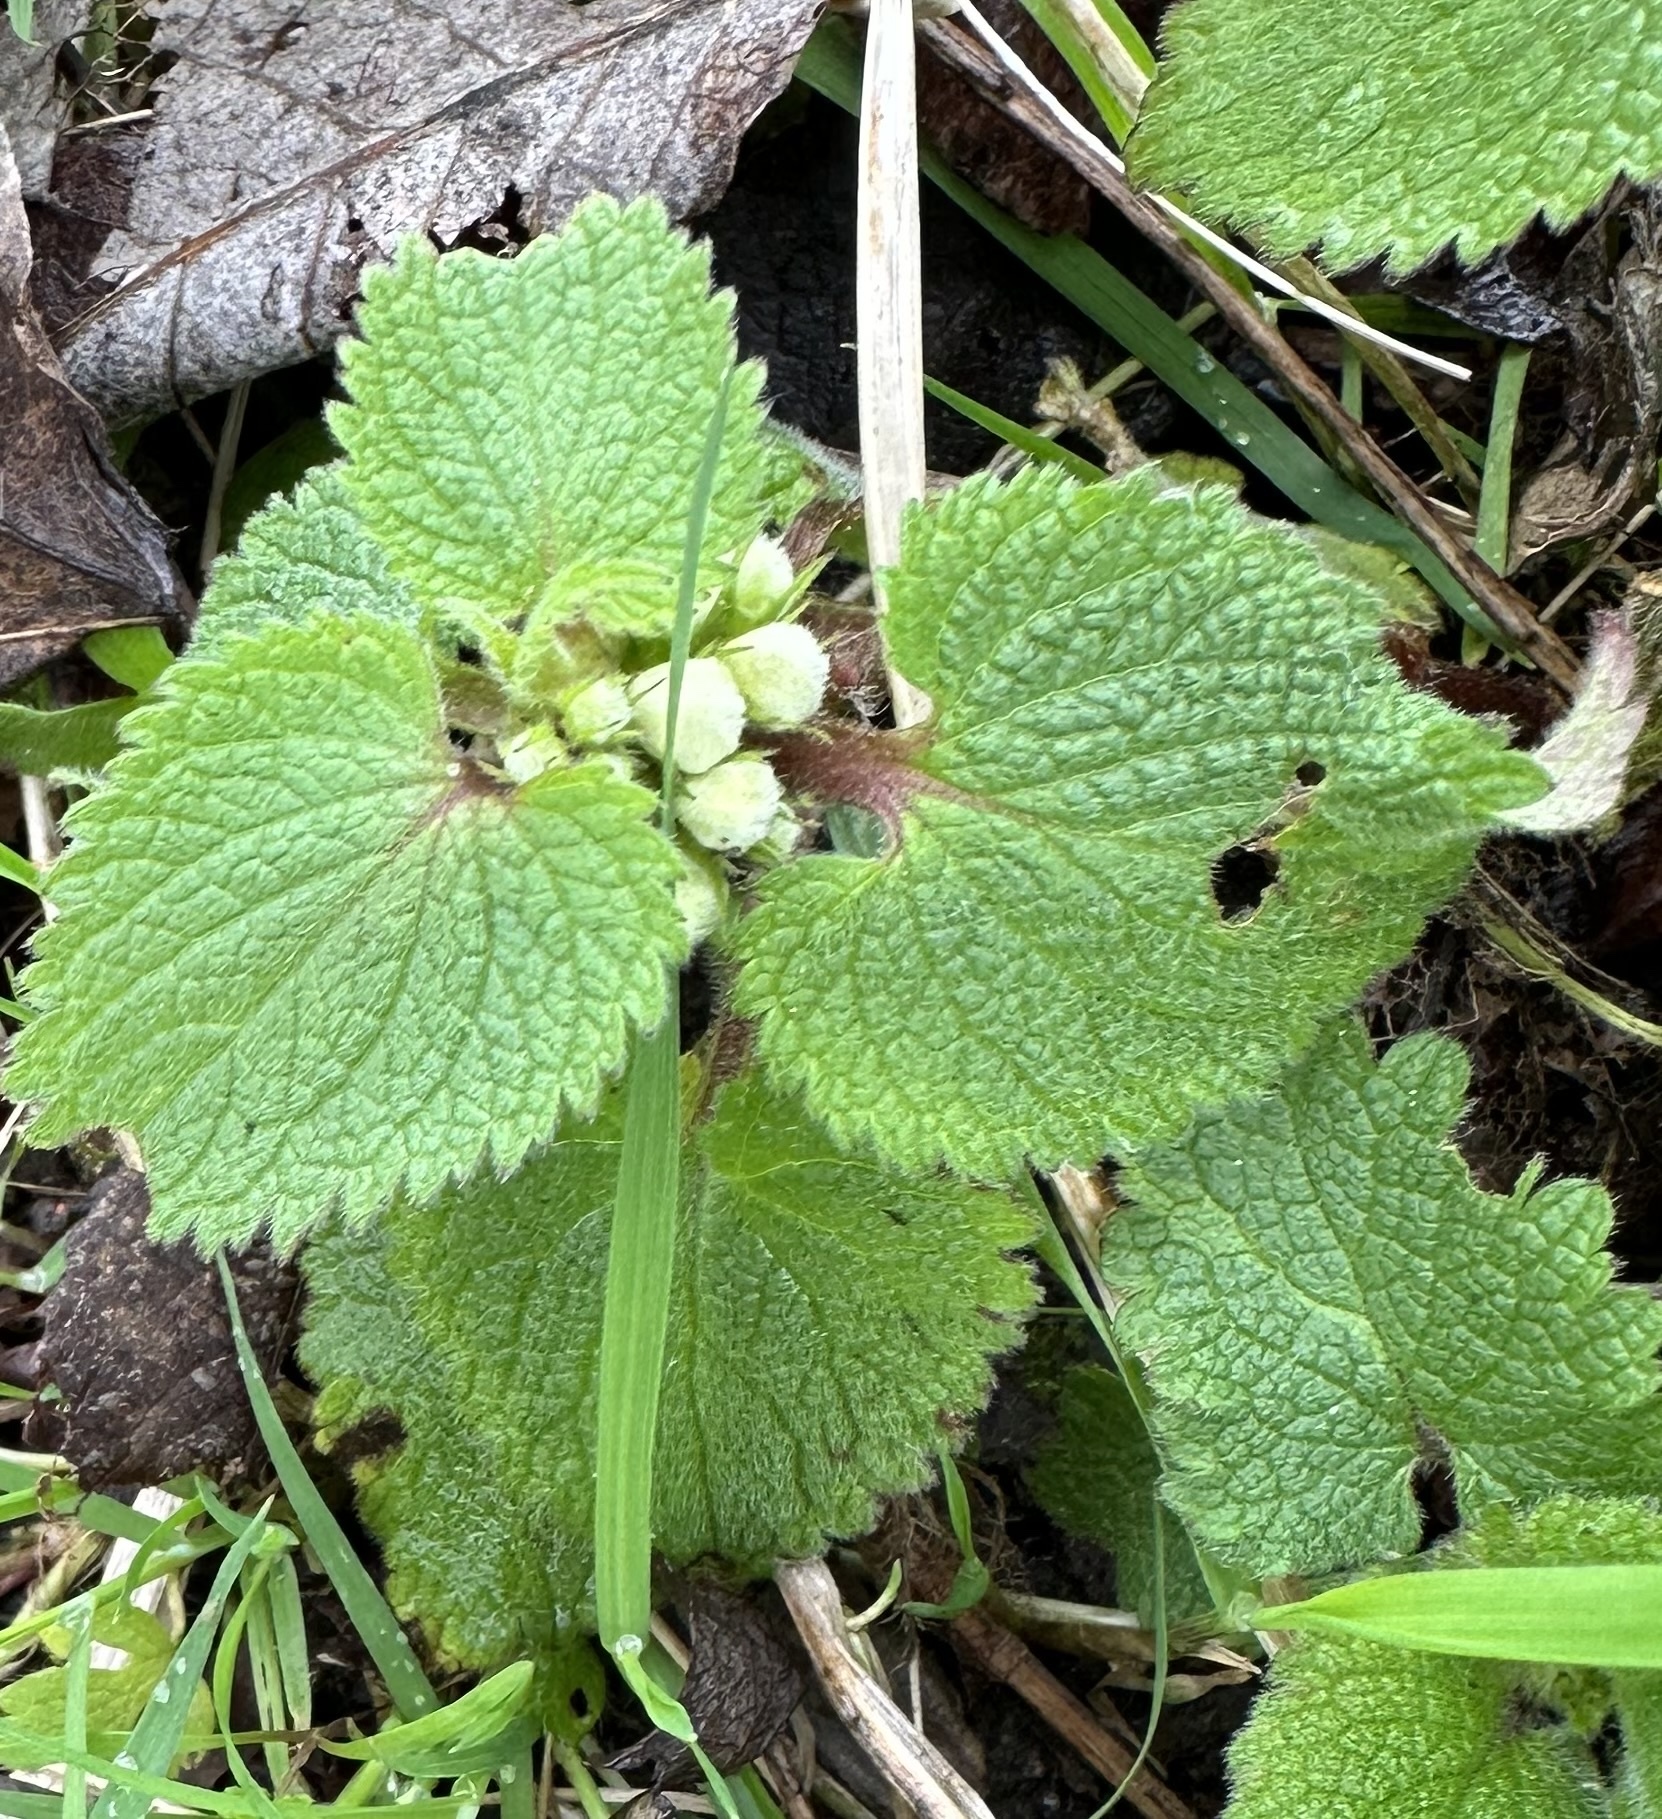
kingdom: Plantae
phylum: Tracheophyta
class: Magnoliopsida
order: Lamiales
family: Lamiaceae
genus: Lamium
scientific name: Lamium album
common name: White dead-nettle
